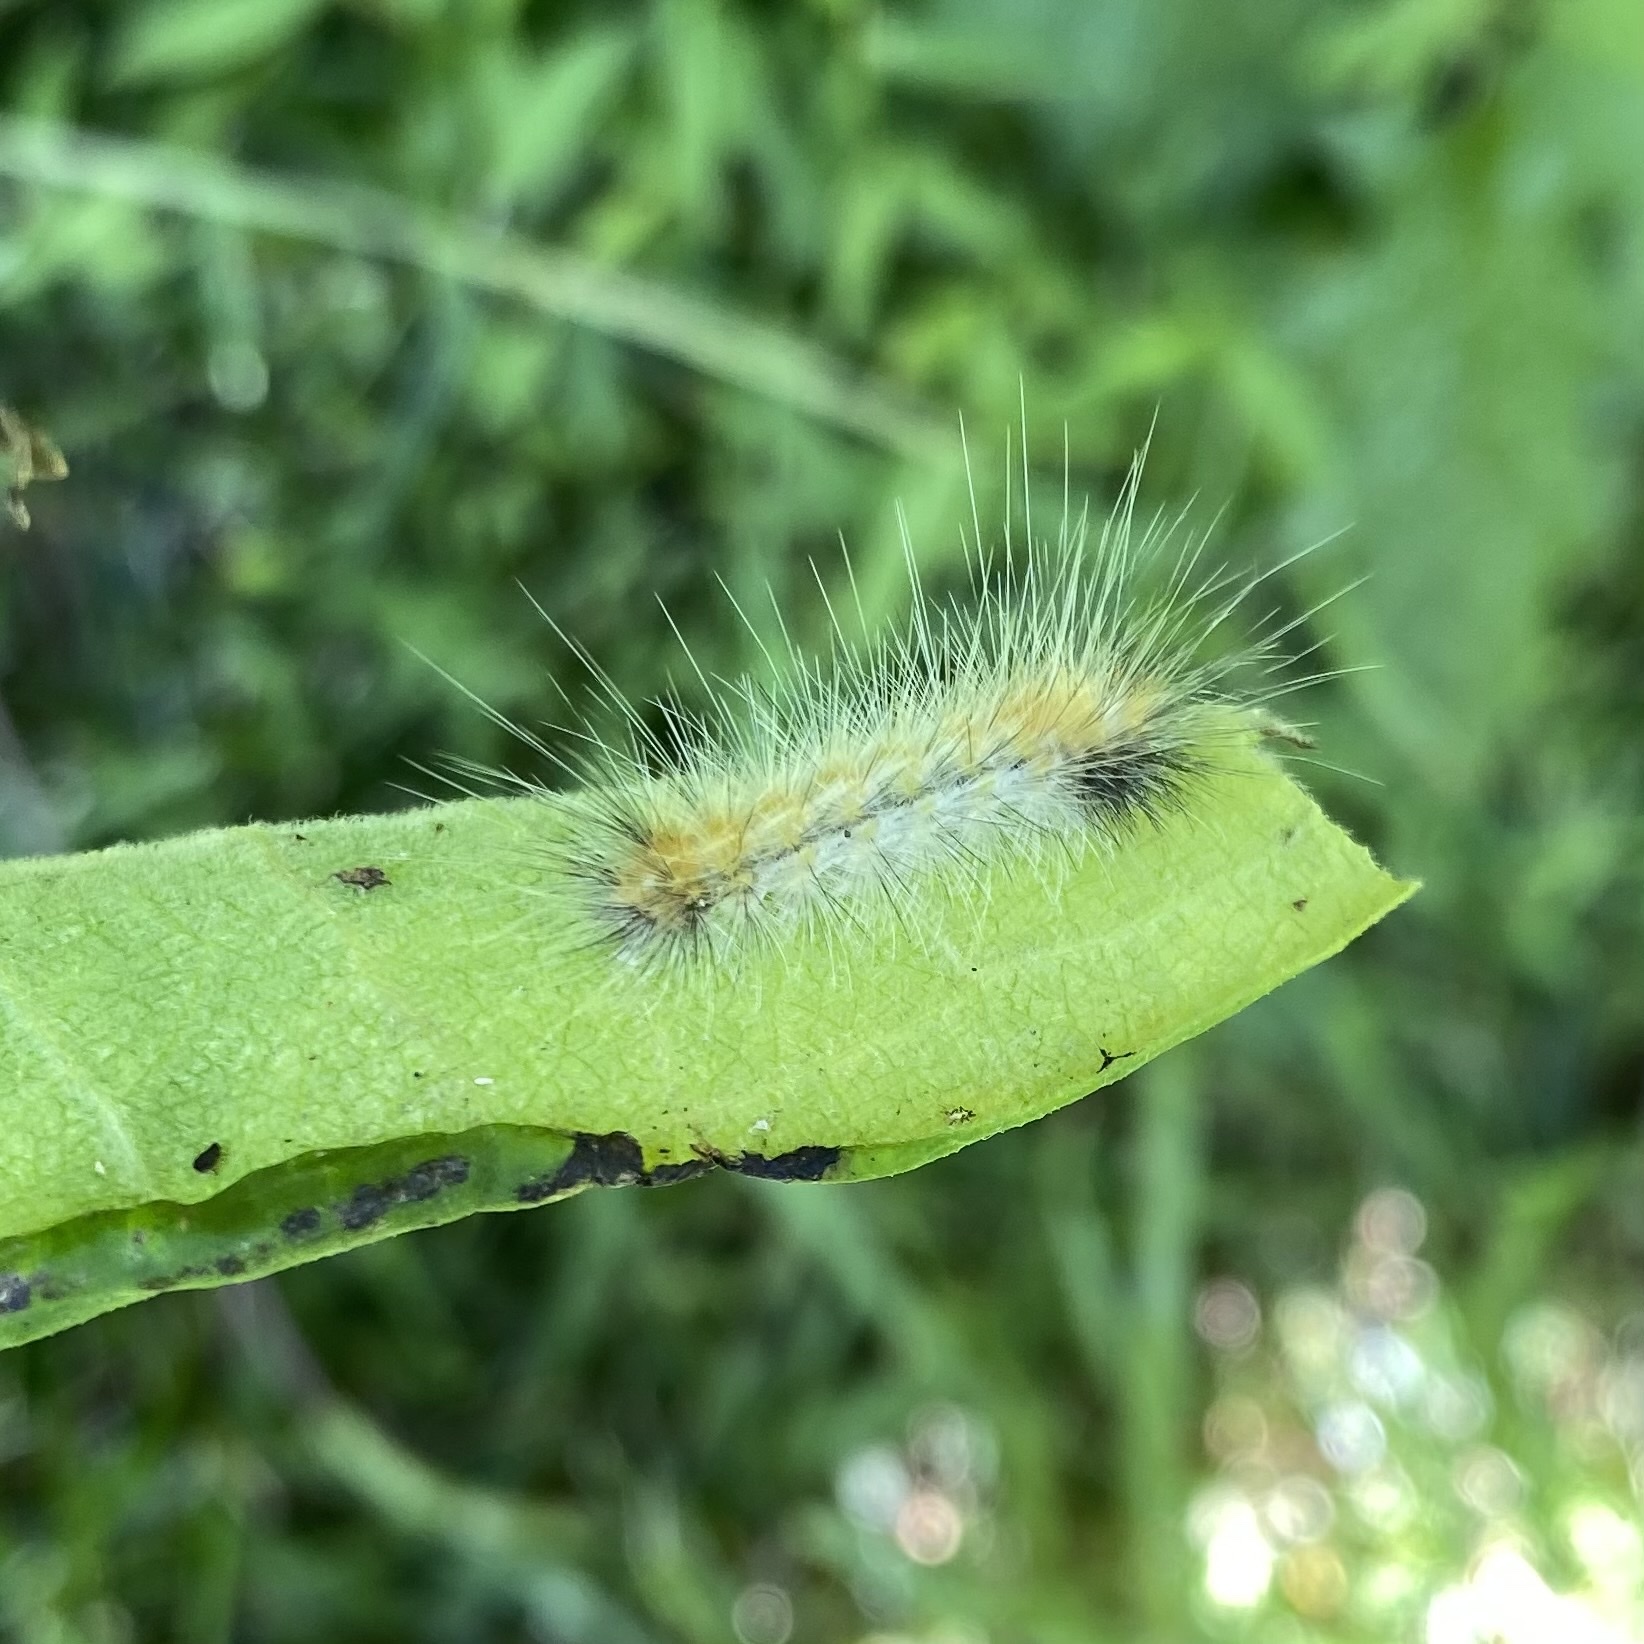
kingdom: Animalia
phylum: Arthropoda
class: Insecta
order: Lepidoptera
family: Erebidae
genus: Hyphantria
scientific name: Hyphantria cunea
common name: American white moth
